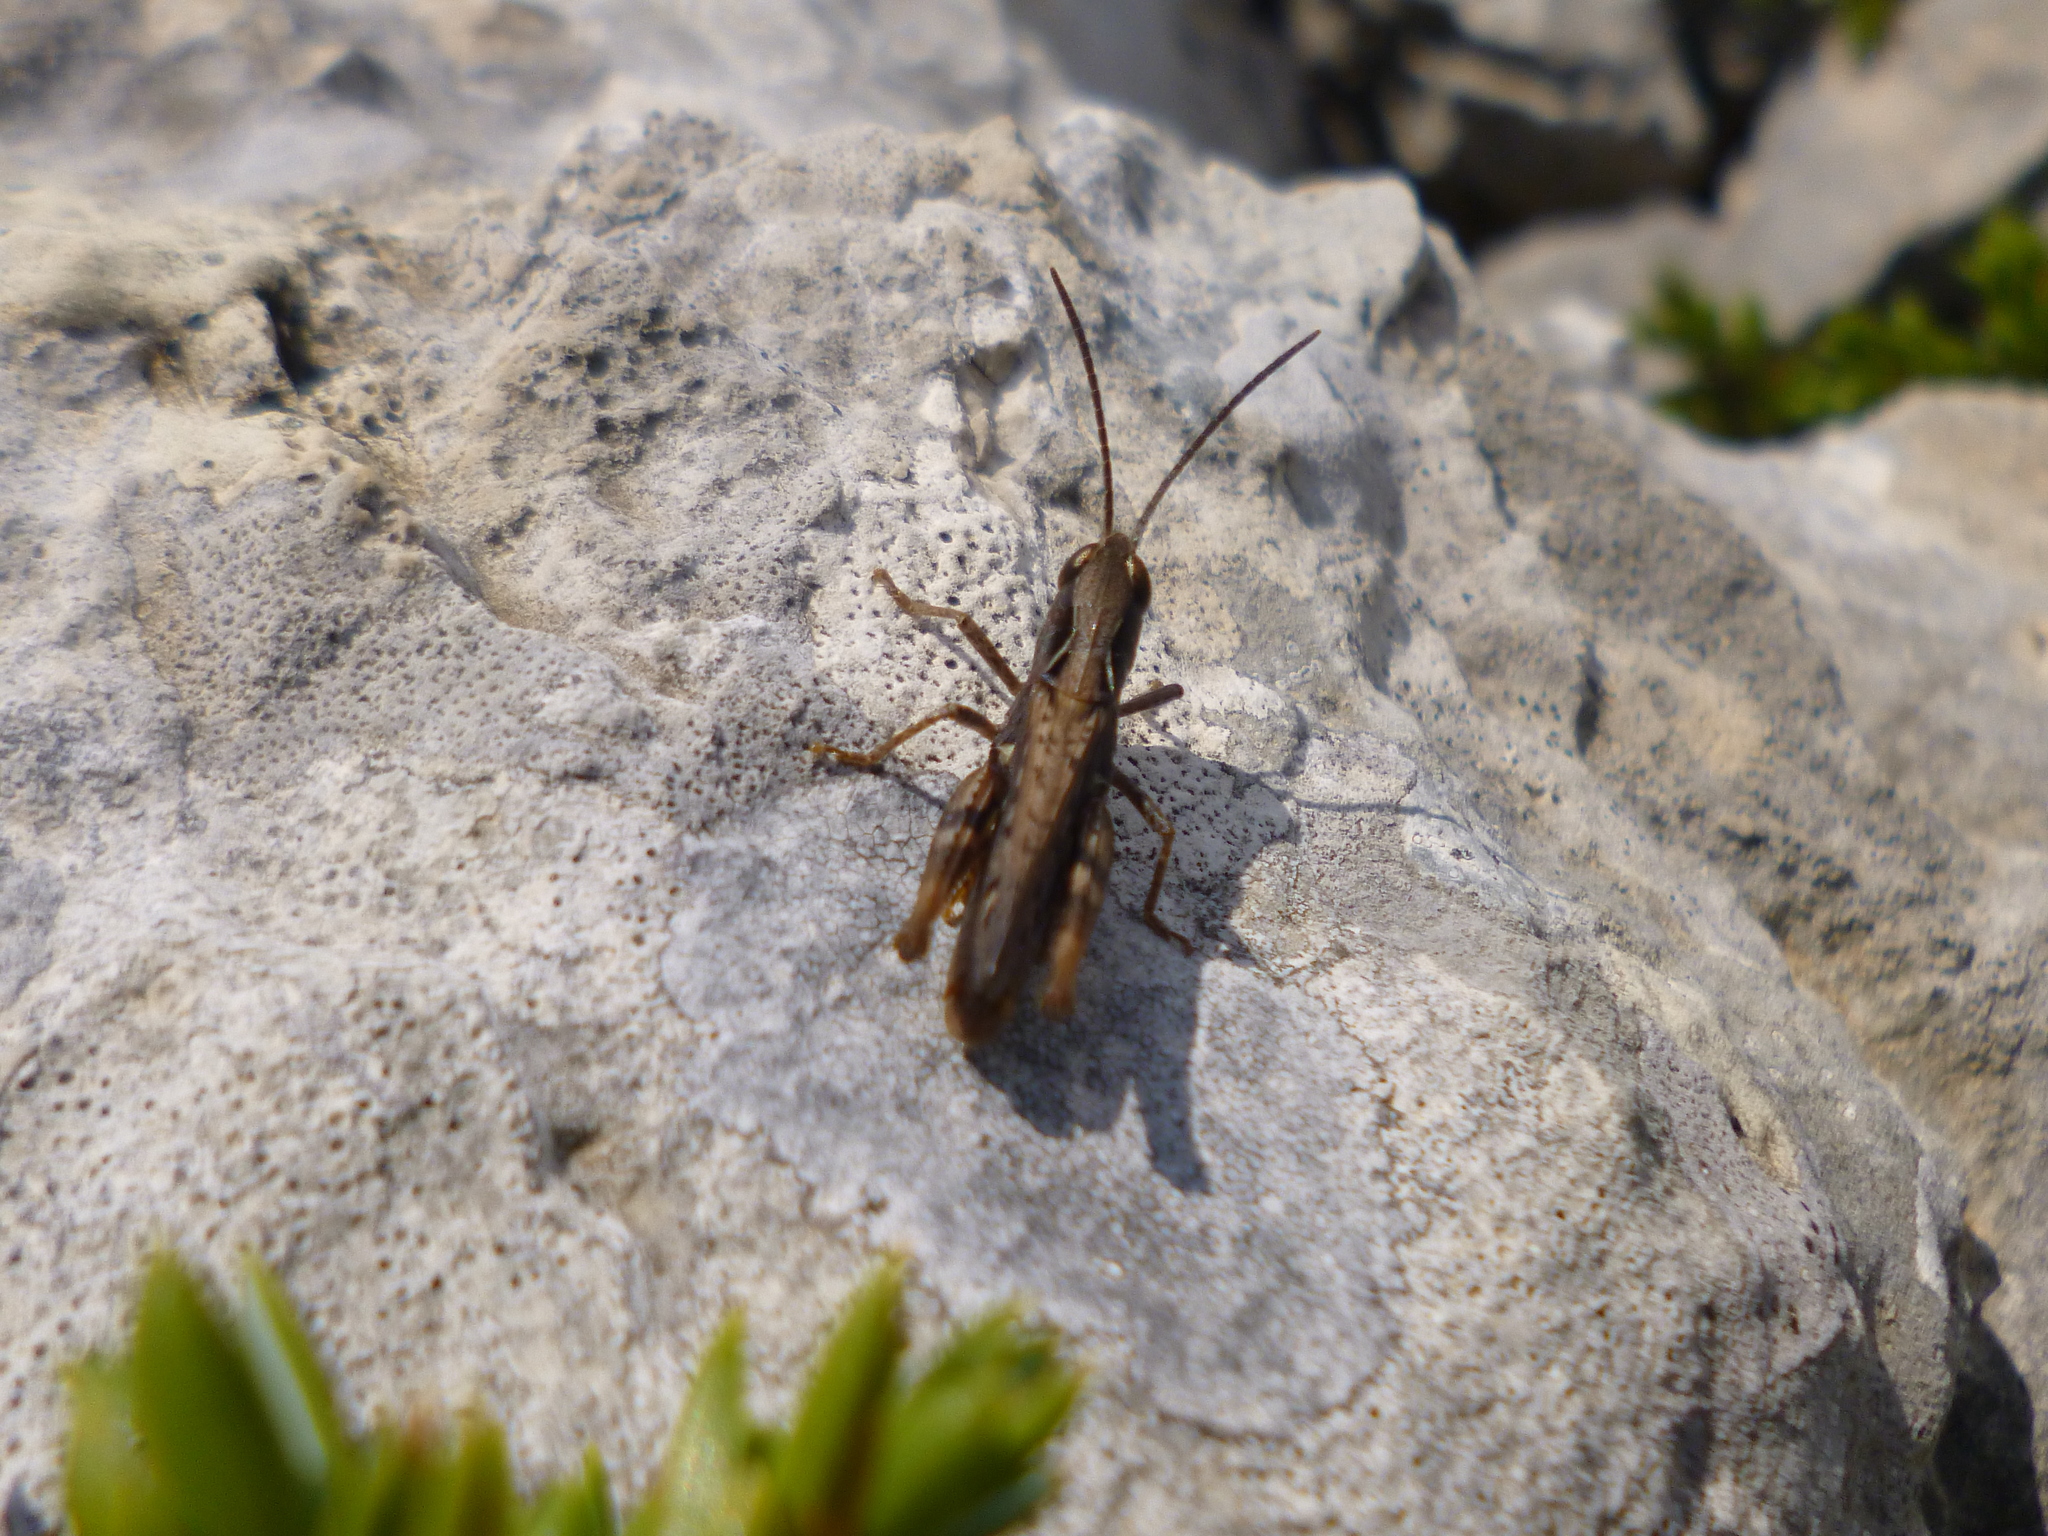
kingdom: Animalia
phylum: Arthropoda
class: Insecta
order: Orthoptera
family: Acrididae
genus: Chorthippus
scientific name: Chorthippus mollis
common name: Lesser field grasshopper
